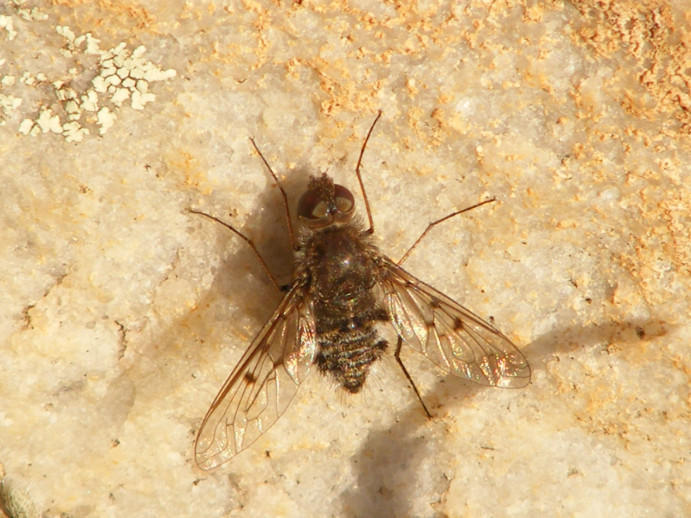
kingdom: Animalia
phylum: Arthropoda
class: Insecta
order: Diptera
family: Bombyliidae
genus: Spogostylum
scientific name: Spogostylum incisurale
